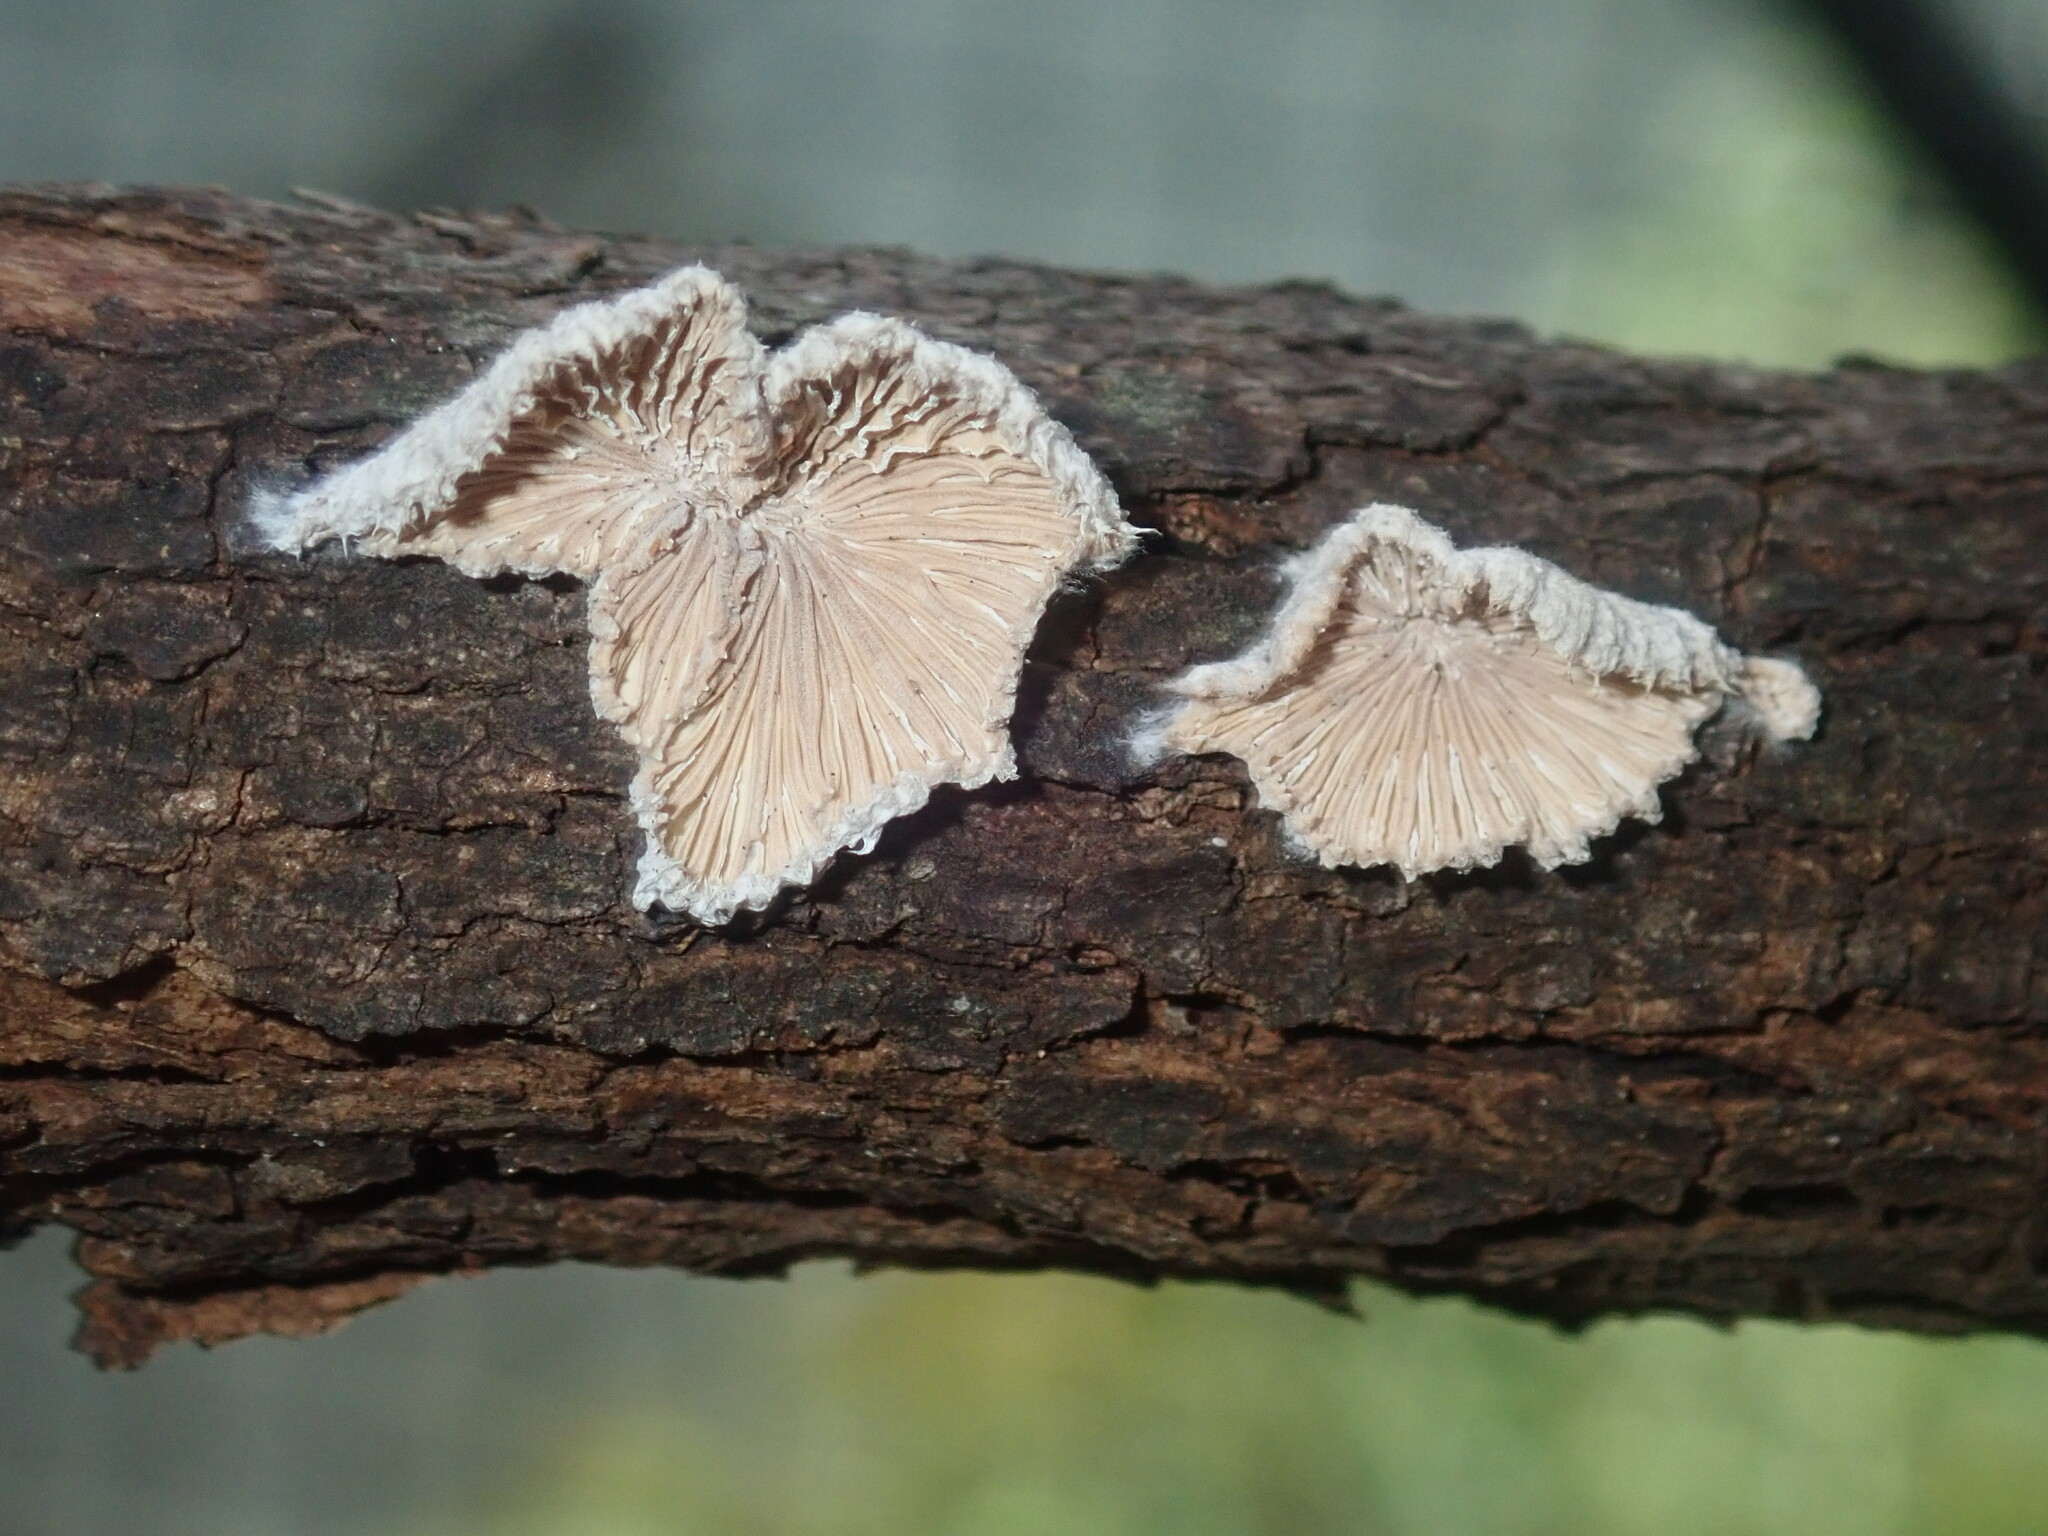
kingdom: Fungi
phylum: Basidiomycota
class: Agaricomycetes
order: Agaricales
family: Schizophyllaceae
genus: Schizophyllum
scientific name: Schizophyllum commune
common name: Common porecrust
